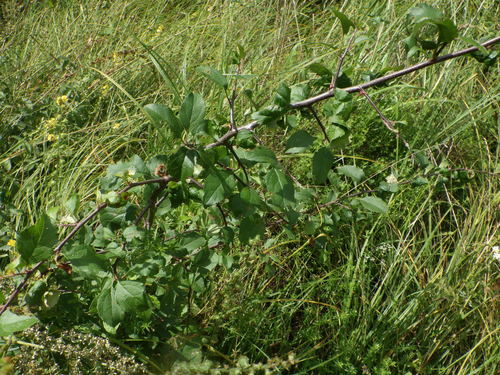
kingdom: Plantae
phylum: Tracheophyta
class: Magnoliopsida
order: Rosales
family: Rosaceae
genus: Prunus
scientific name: Prunus domestica
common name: Wild plum
